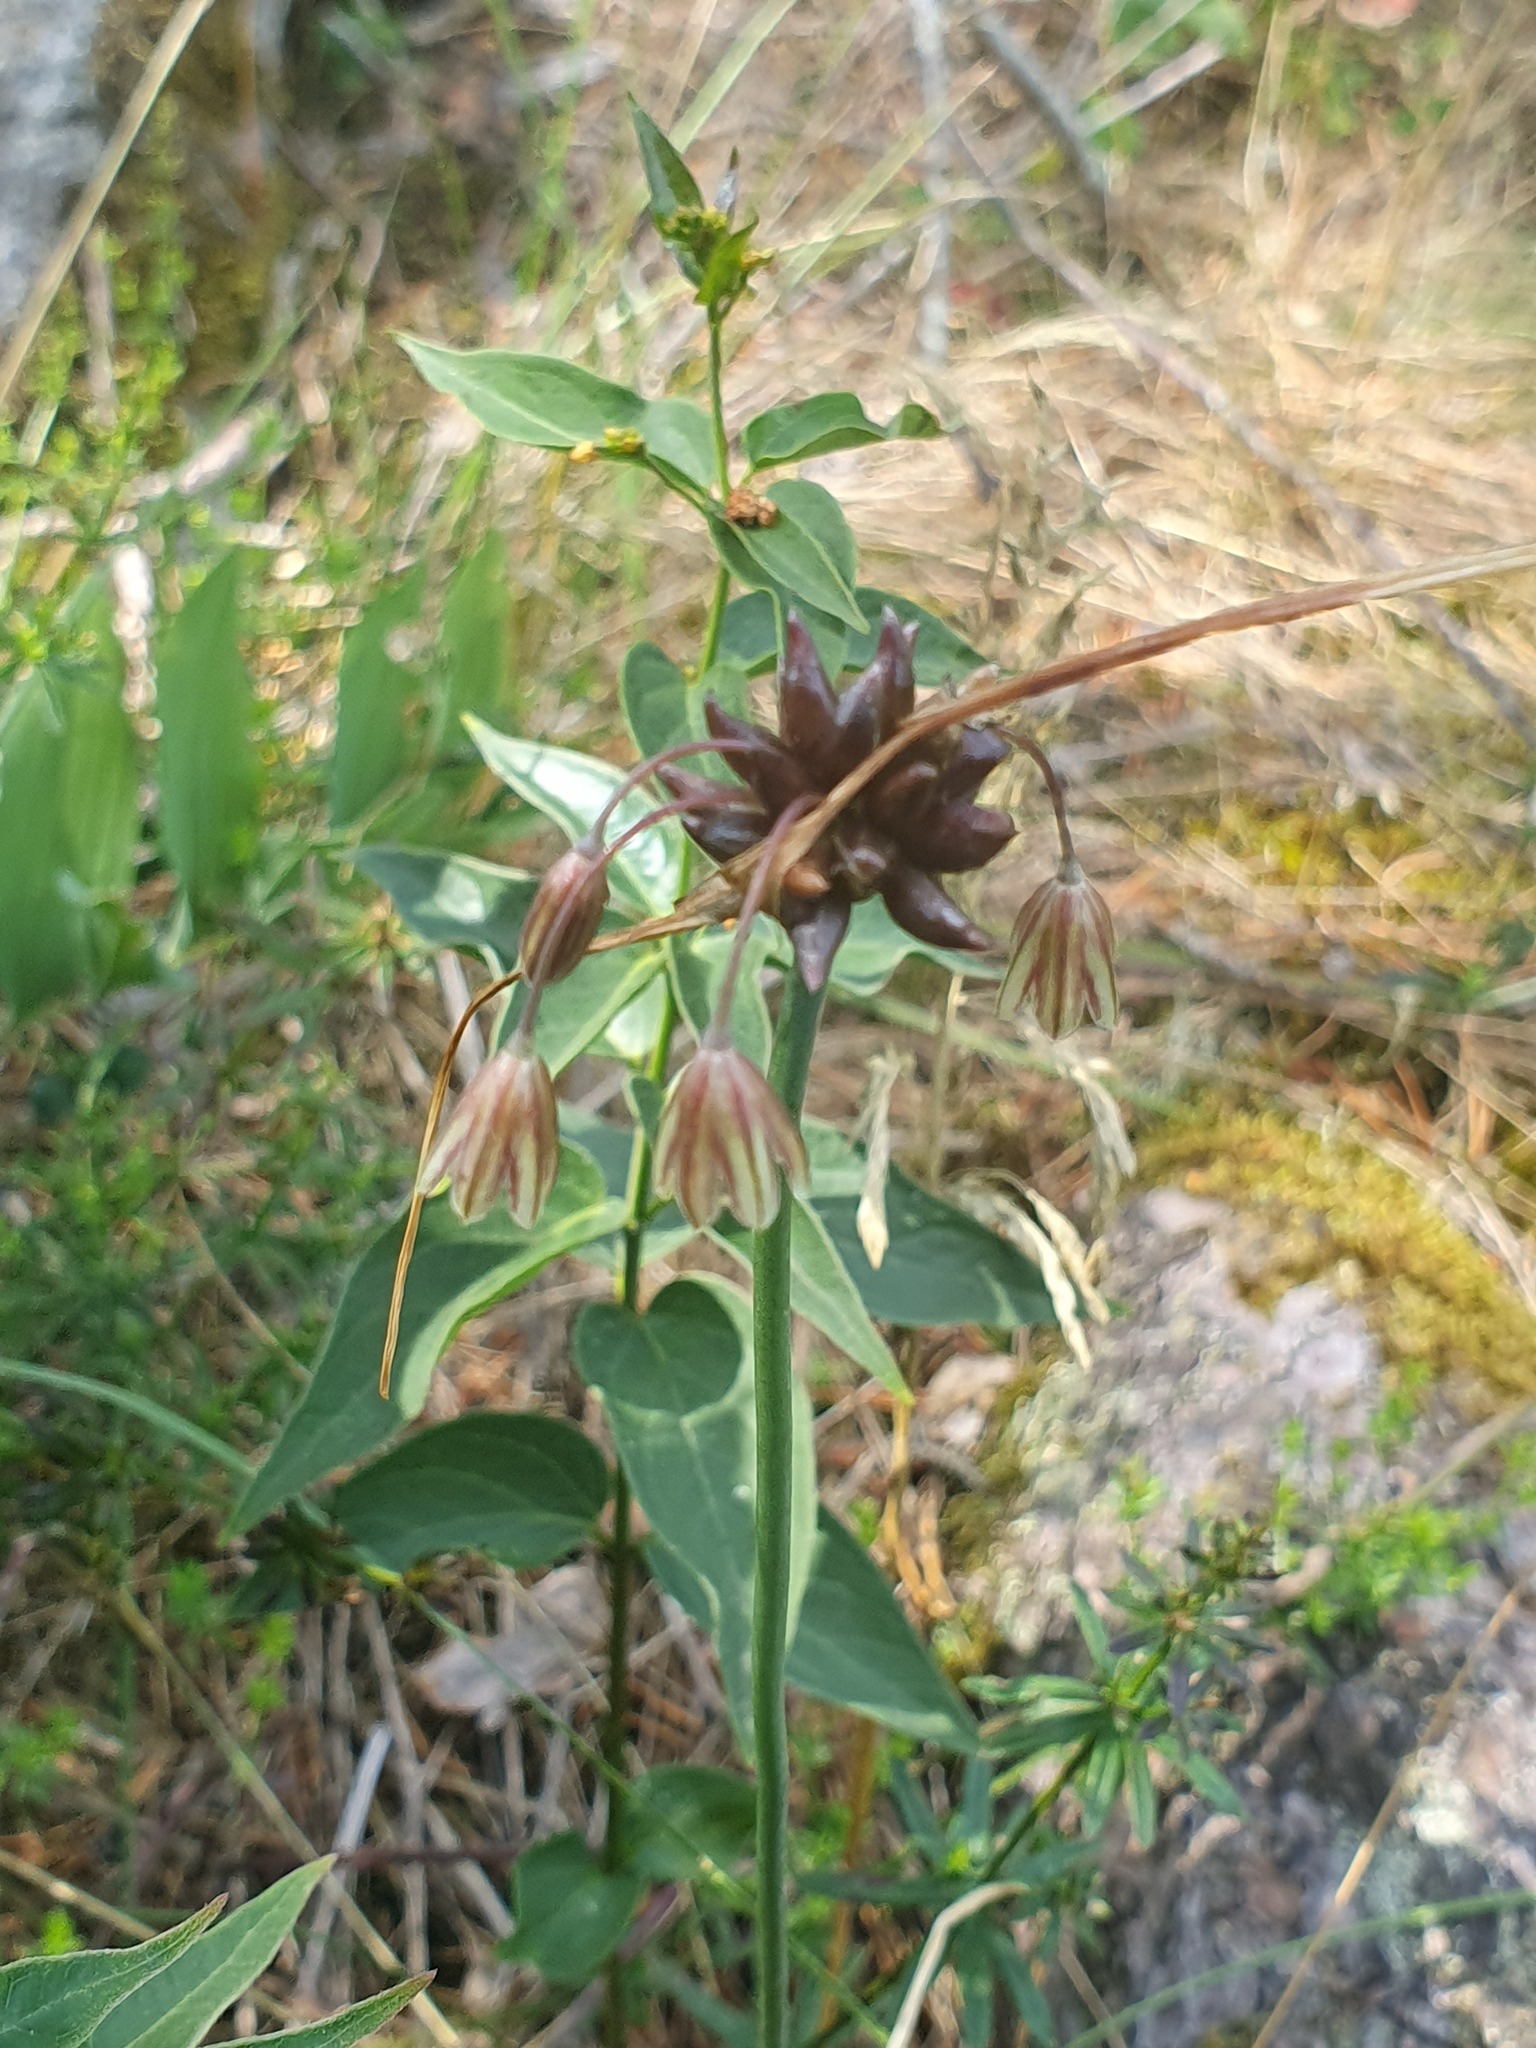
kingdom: Plantae
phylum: Tracheophyta
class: Liliopsida
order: Asparagales
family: Amaryllidaceae
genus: Allium
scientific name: Allium oleraceum
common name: Field garlic
